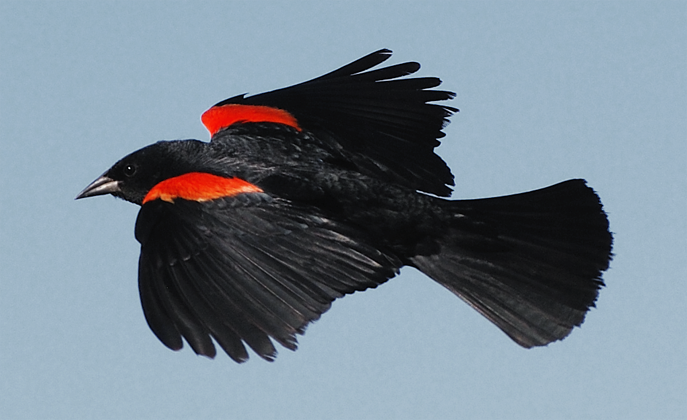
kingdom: Animalia
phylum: Chordata
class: Aves
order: Passeriformes
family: Icteridae
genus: Agelaius
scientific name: Agelaius phoeniceus
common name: Red-winged blackbird
